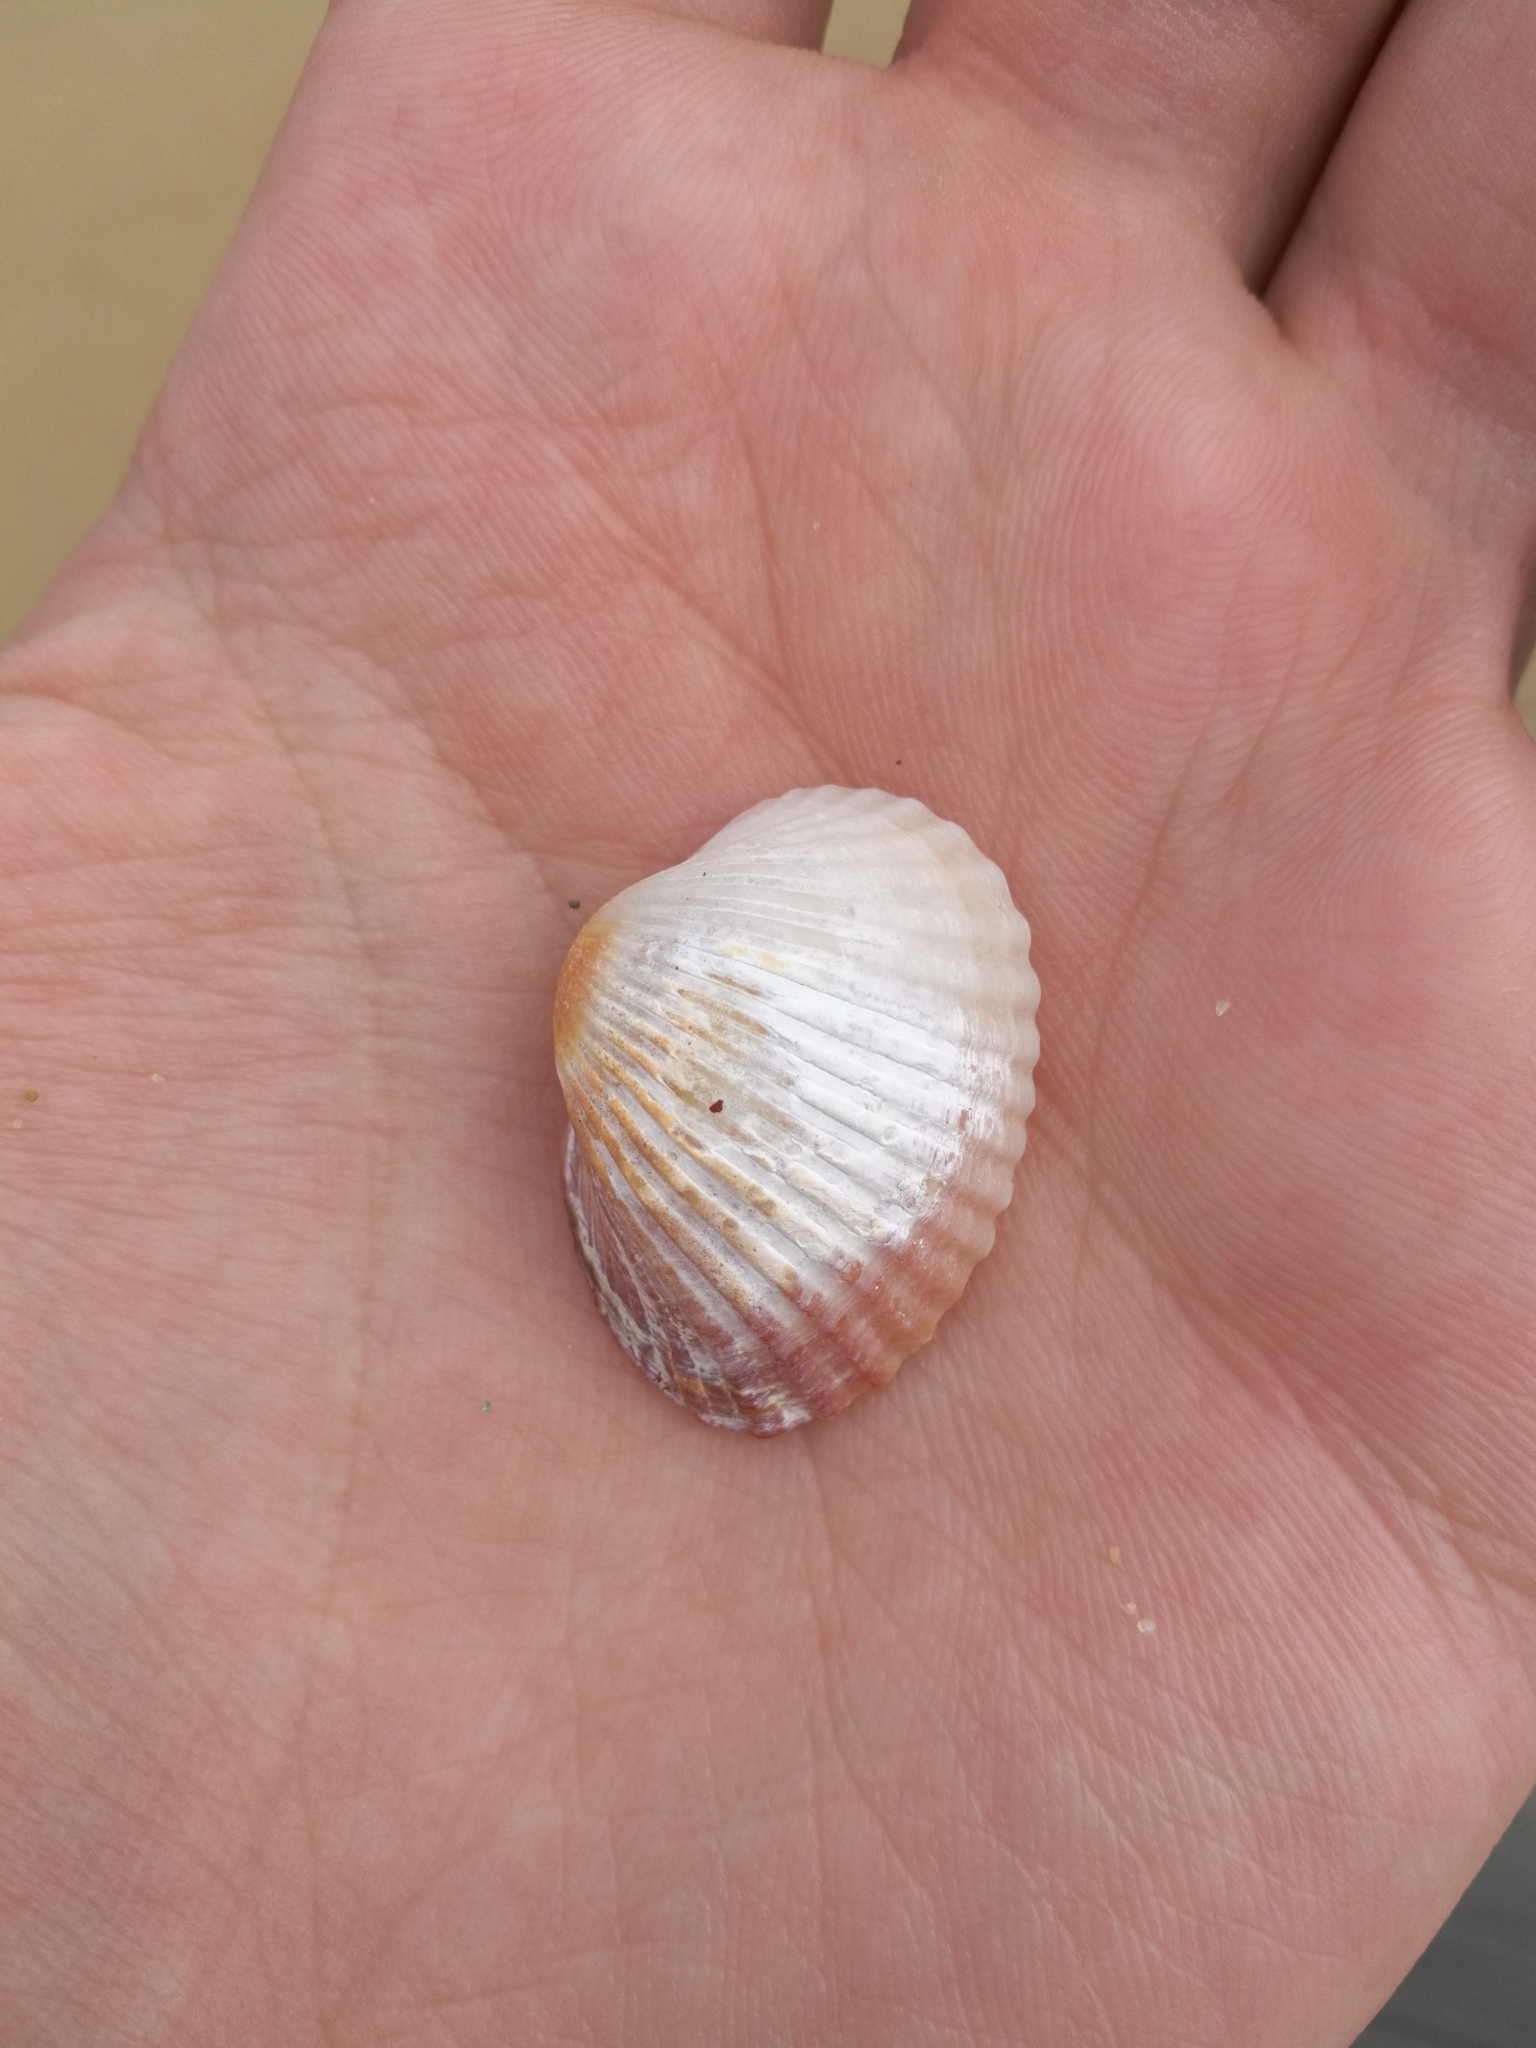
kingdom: Animalia
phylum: Mollusca
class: Bivalvia
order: Cardiida
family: Cardiidae
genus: Cerastoderma
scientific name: Cerastoderma glaucum
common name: Lagoon cockle
